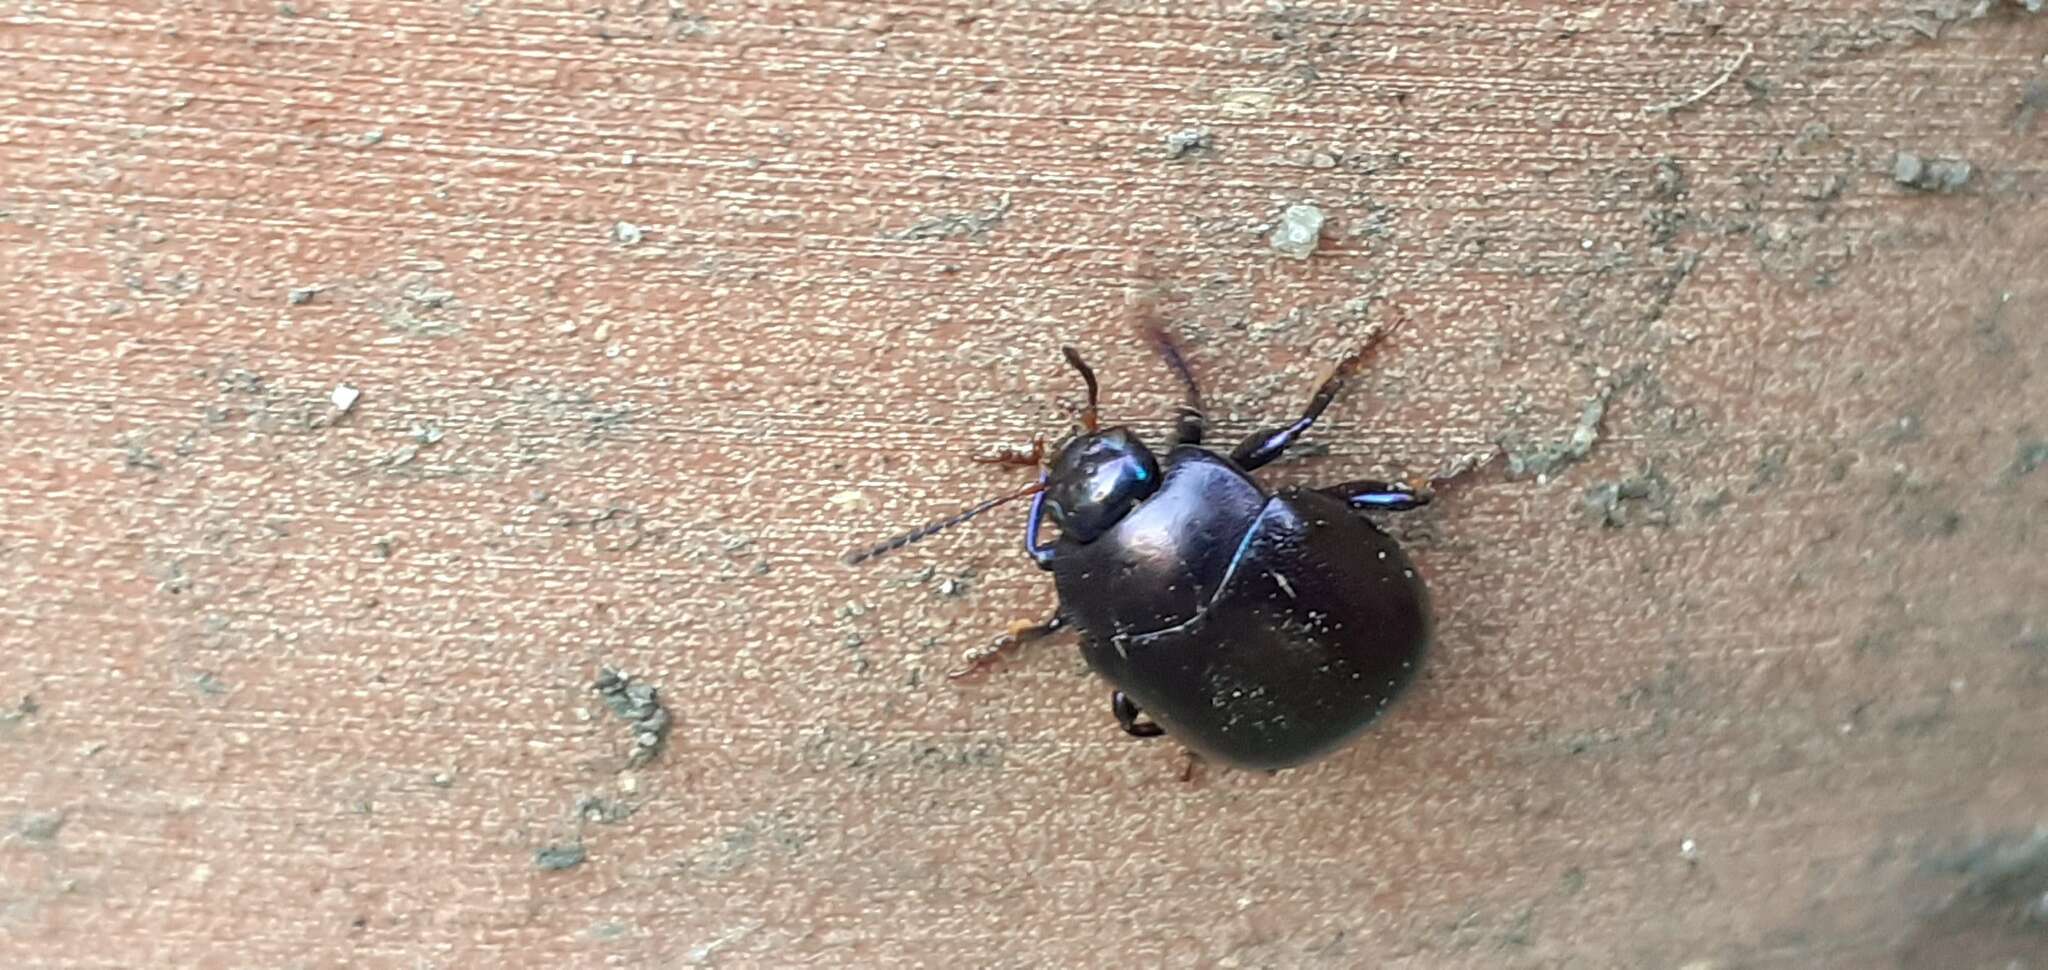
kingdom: Animalia
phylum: Arthropoda
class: Insecta
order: Coleoptera
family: Chrysomelidae
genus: Chrysolina
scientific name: Chrysolina sturmi
